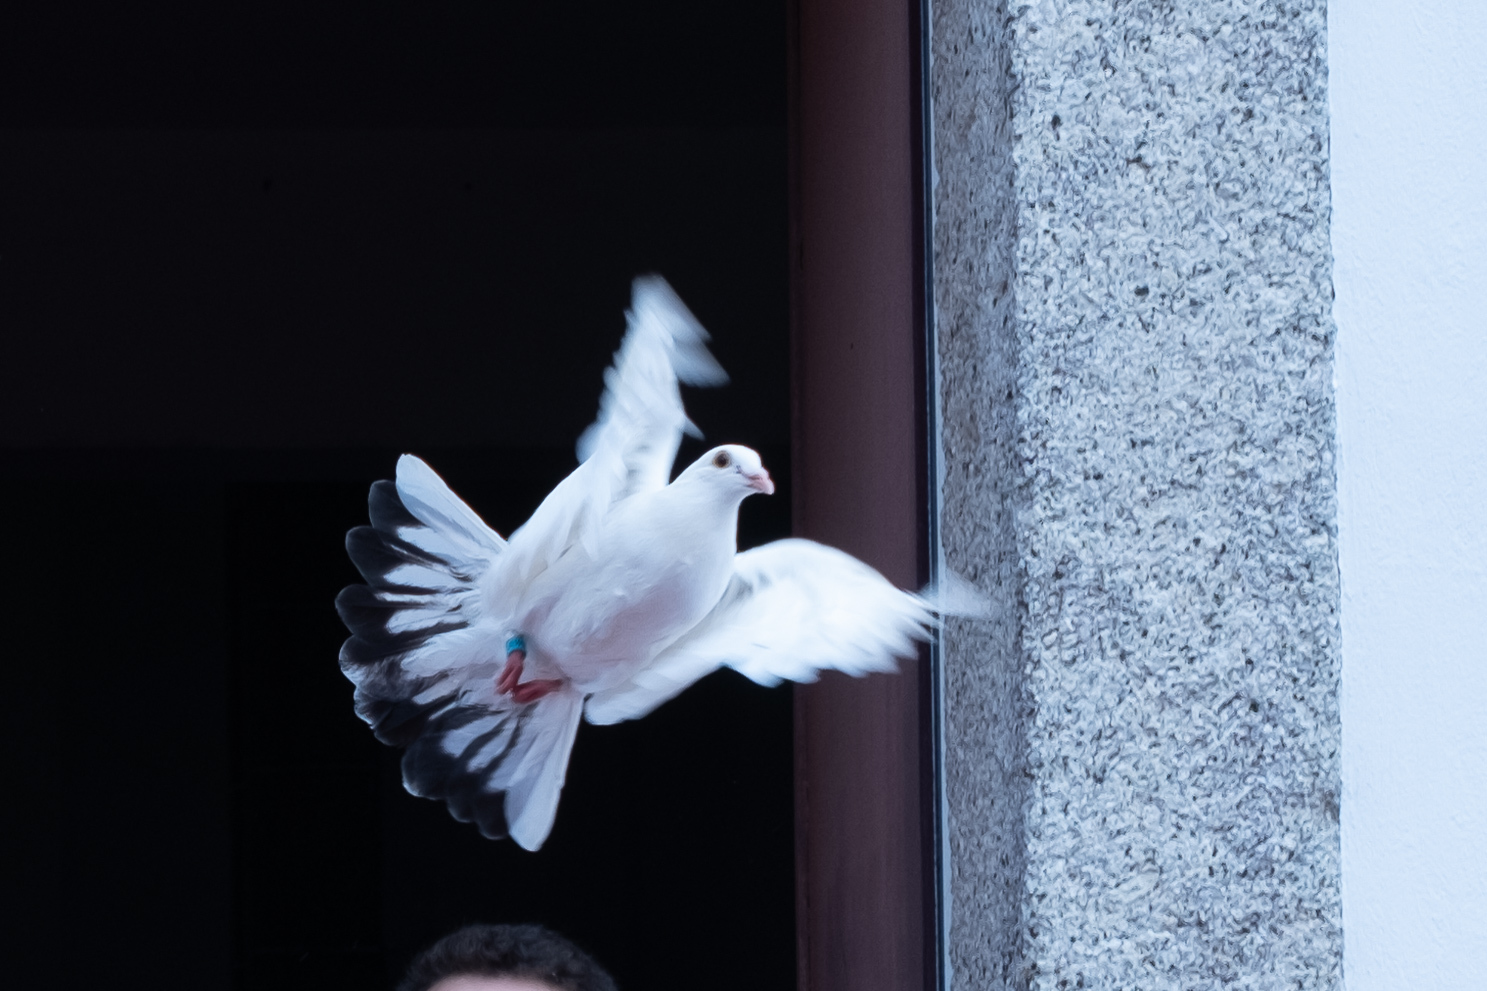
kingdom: Animalia
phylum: Chordata
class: Aves
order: Columbiformes
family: Columbidae
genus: Columba
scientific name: Columba livia
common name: Rock pigeon
